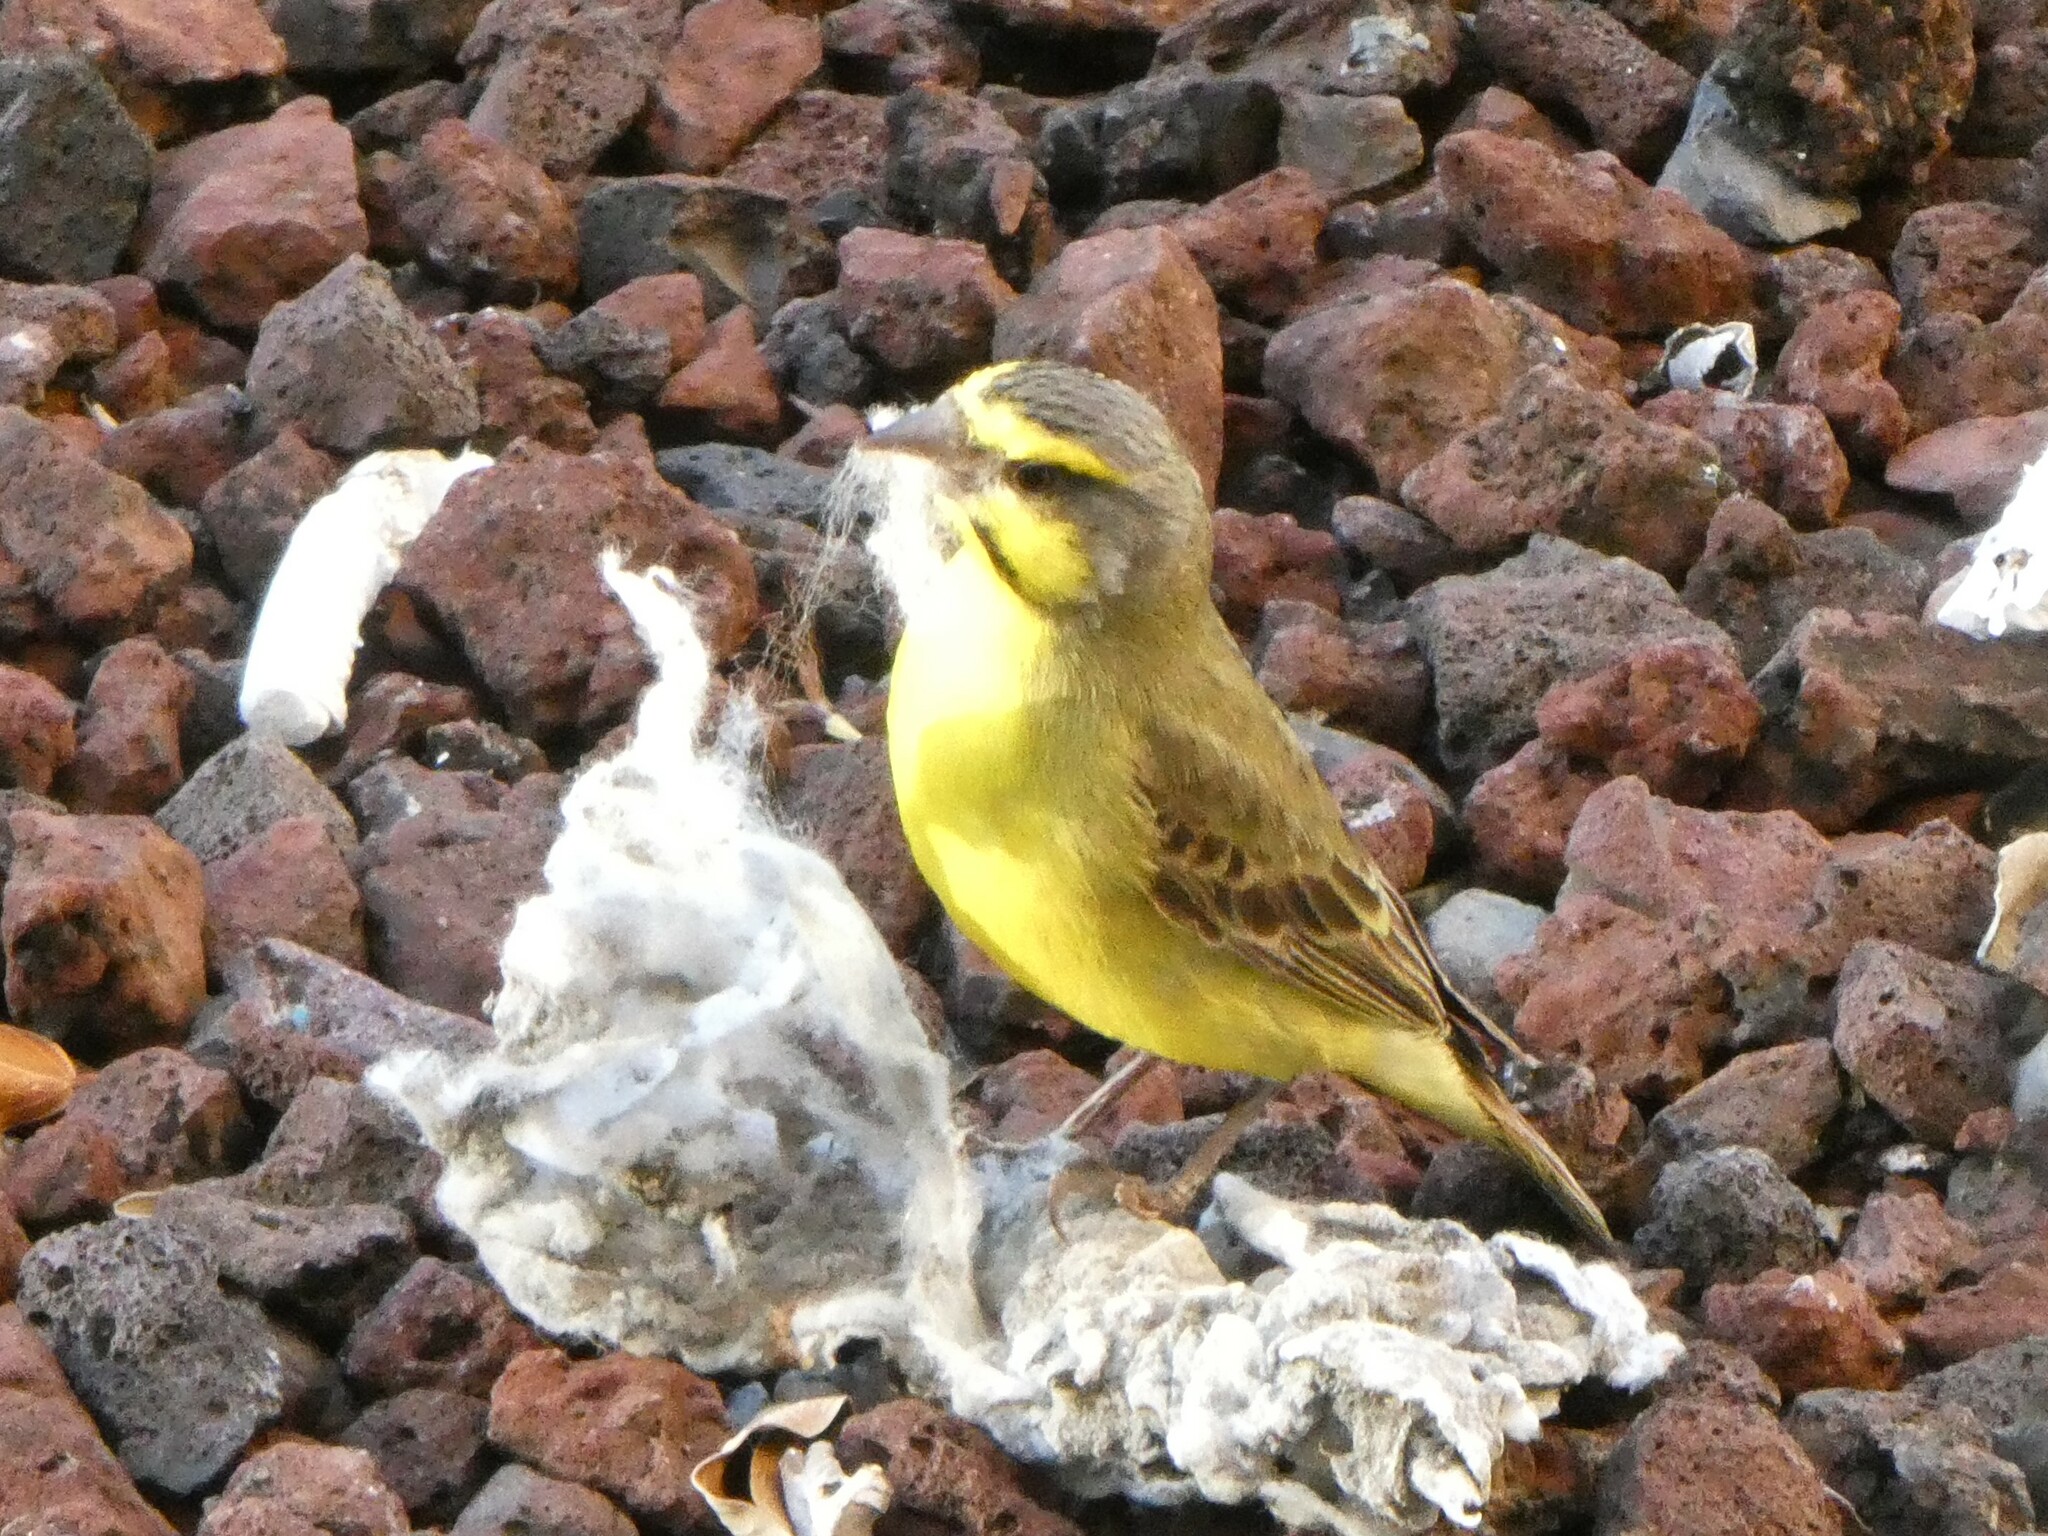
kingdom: Animalia
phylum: Chordata
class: Aves
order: Passeriformes
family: Fringillidae
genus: Crithagra
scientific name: Crithagra mozambica
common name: Yellow-fronted canary
